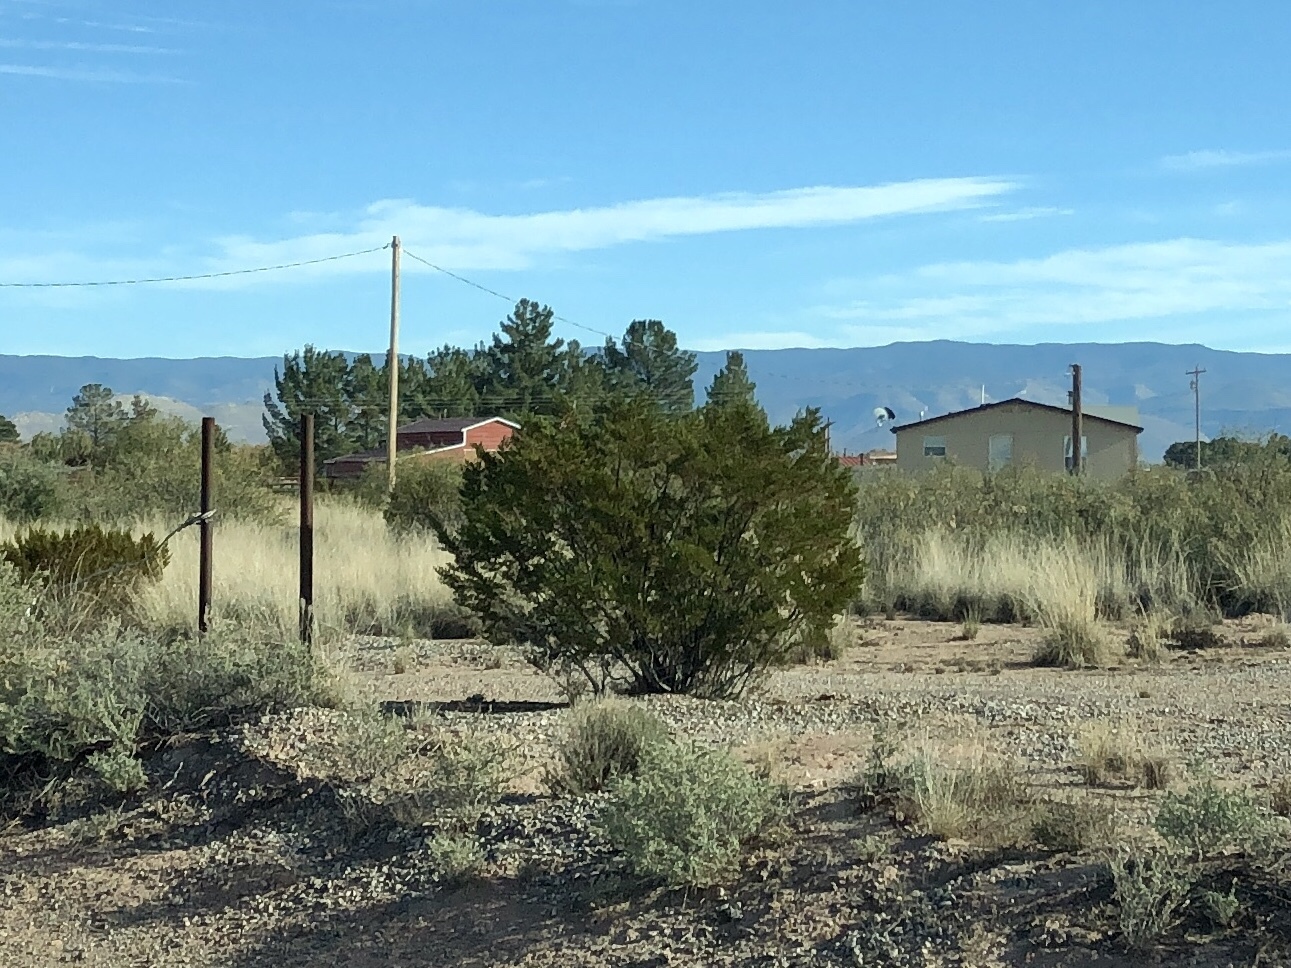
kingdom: Plantae
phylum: Tracheophyta
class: Magnoliopsida
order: Zygophyllales
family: Zygophyllaceae
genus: Larrea
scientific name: Larrea tridentata
